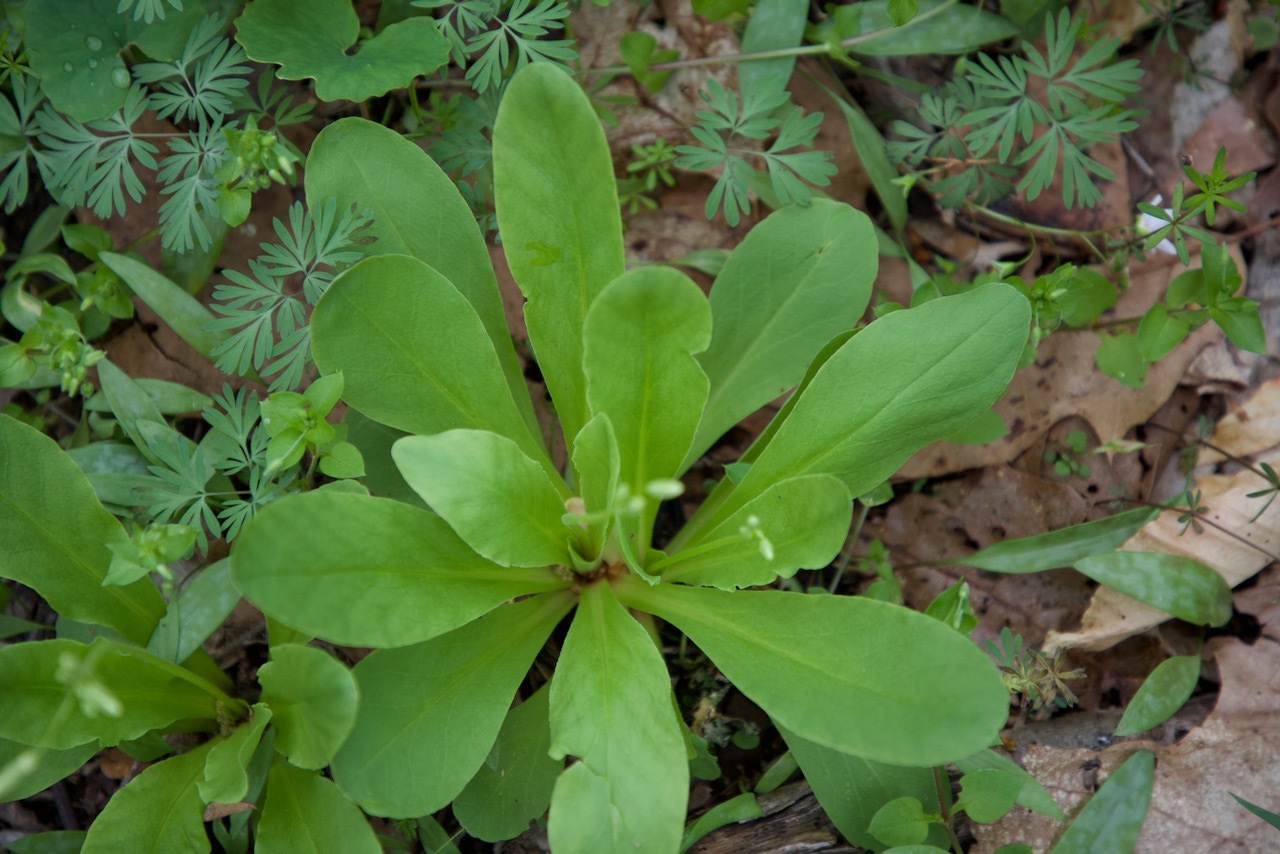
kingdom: Plantae
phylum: Tracheophyta
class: Magnoliopsida
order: Ericales
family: Primulaceae
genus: Dodecatheon
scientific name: Dodecatheon meadia
